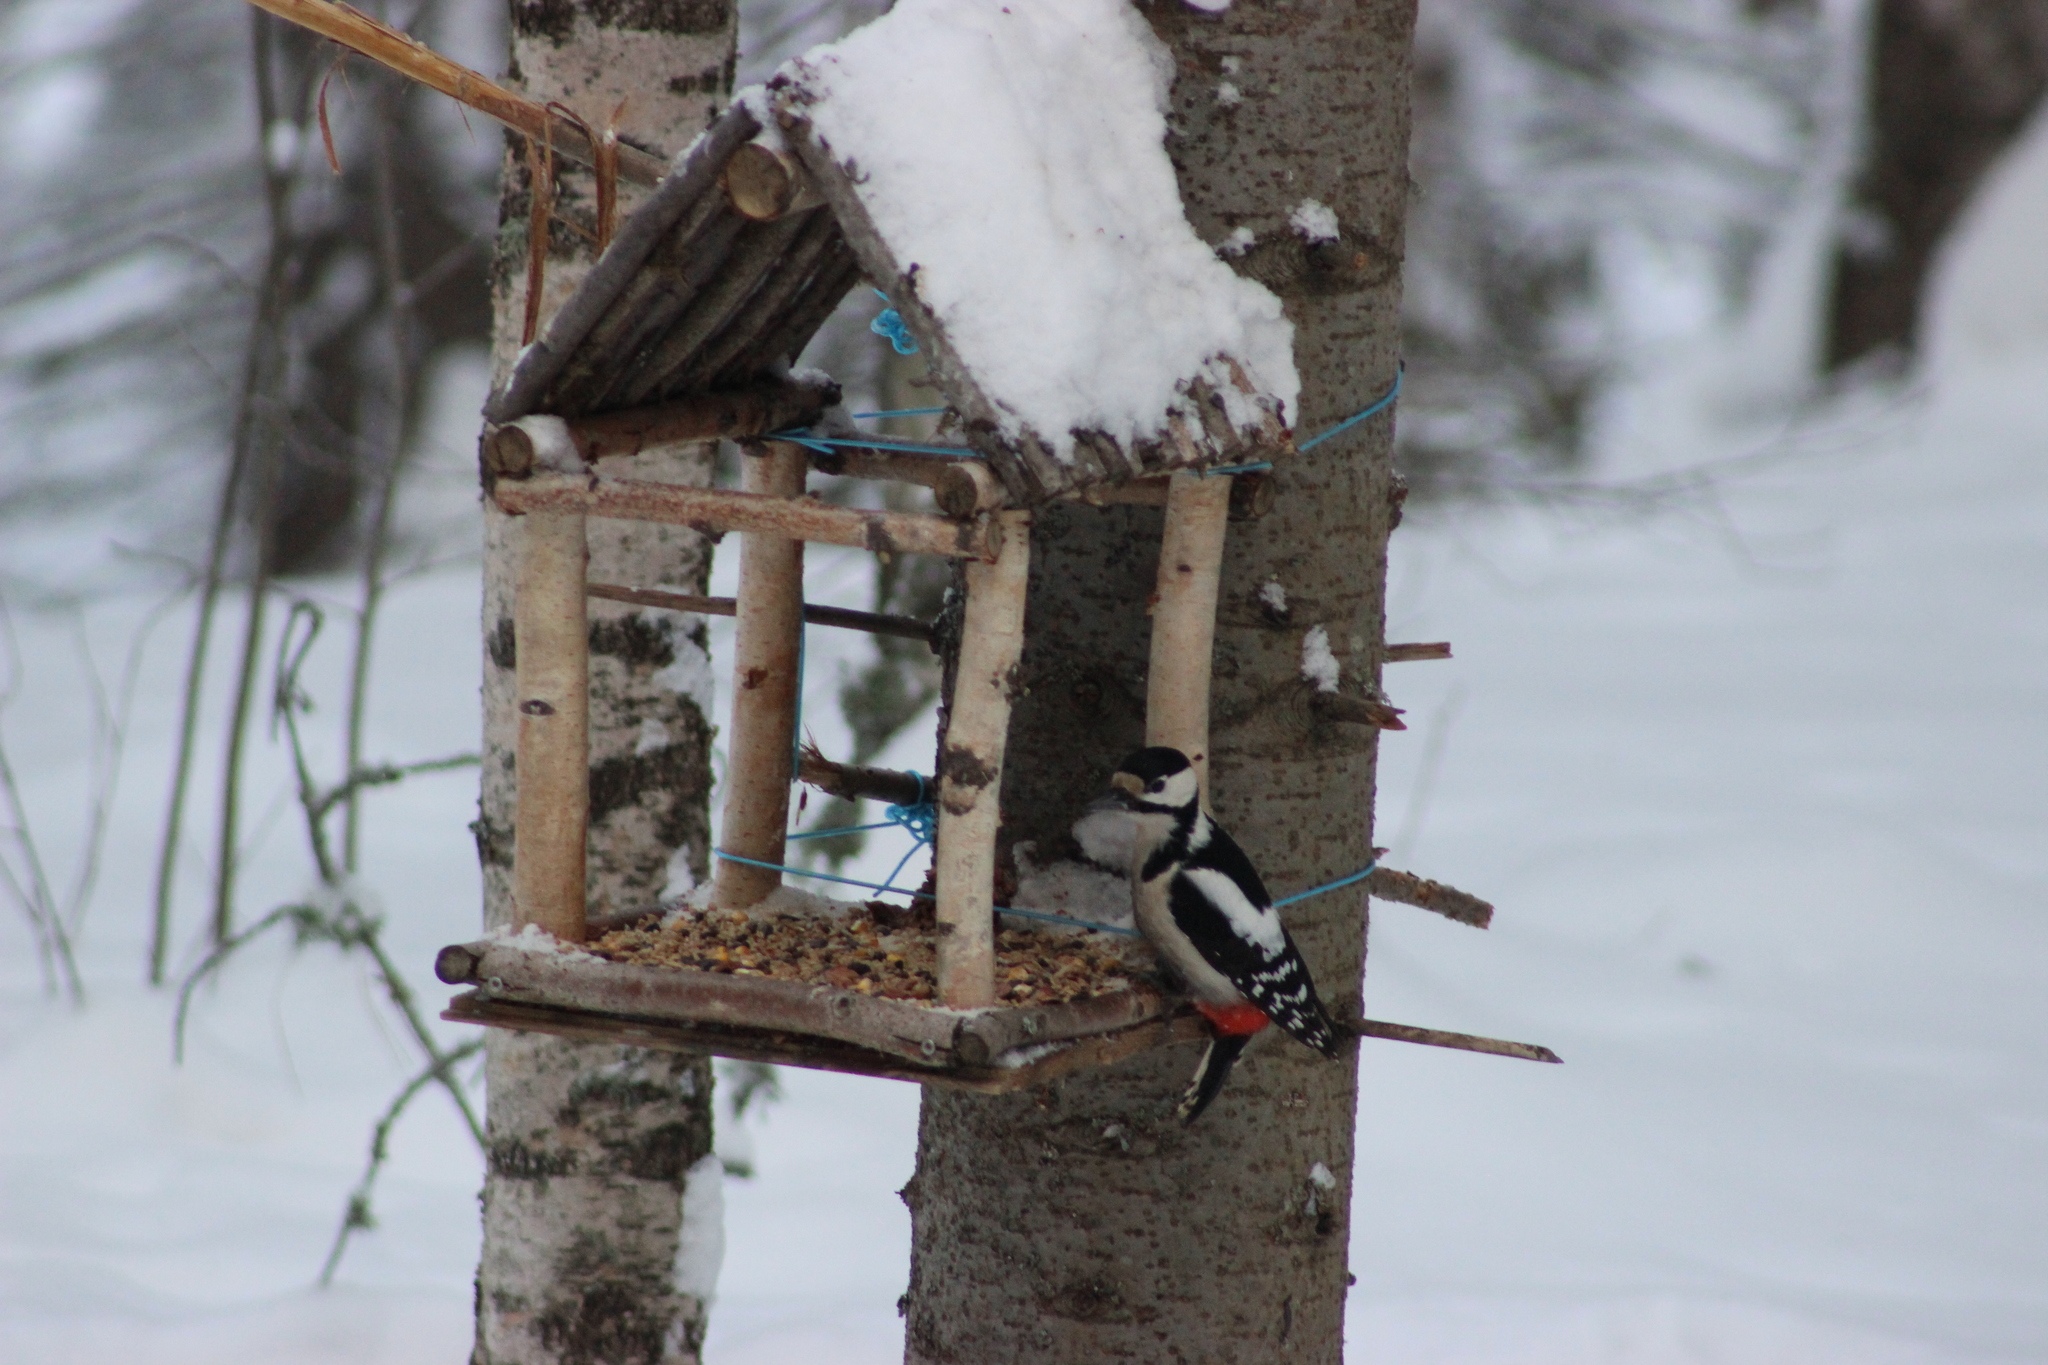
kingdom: Animalia
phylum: Chordata
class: Aves
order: Piciformes
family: Picidae
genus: Dendrocopos
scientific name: Dendrocopos major
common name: Great spotted woodpecker
